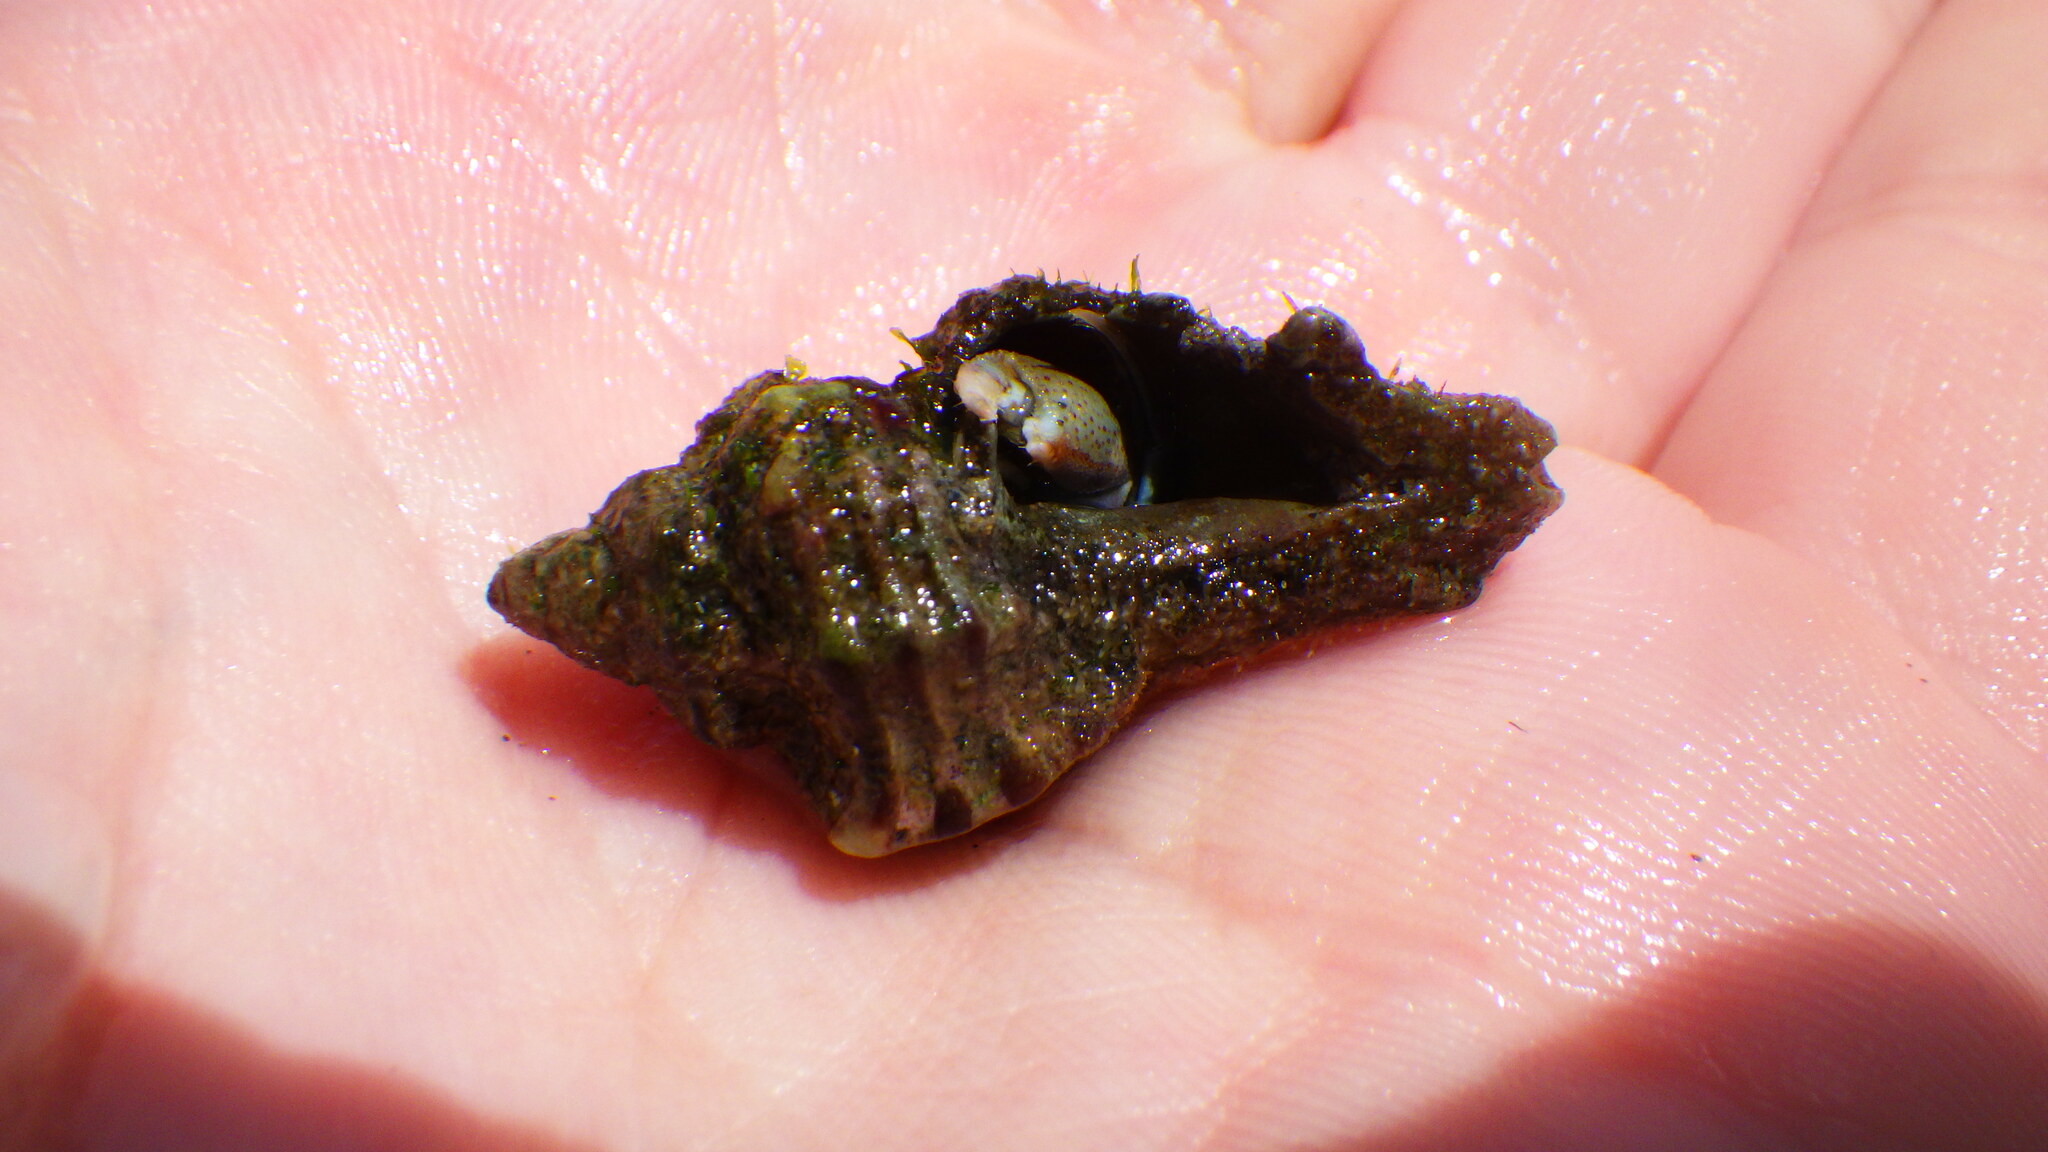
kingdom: Animalia
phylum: Mollusca
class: Gastropoda
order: Neogastropoda
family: Muricidae
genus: Hexaplex
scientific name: Hexaplex trunculus
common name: Banded dye-murex
